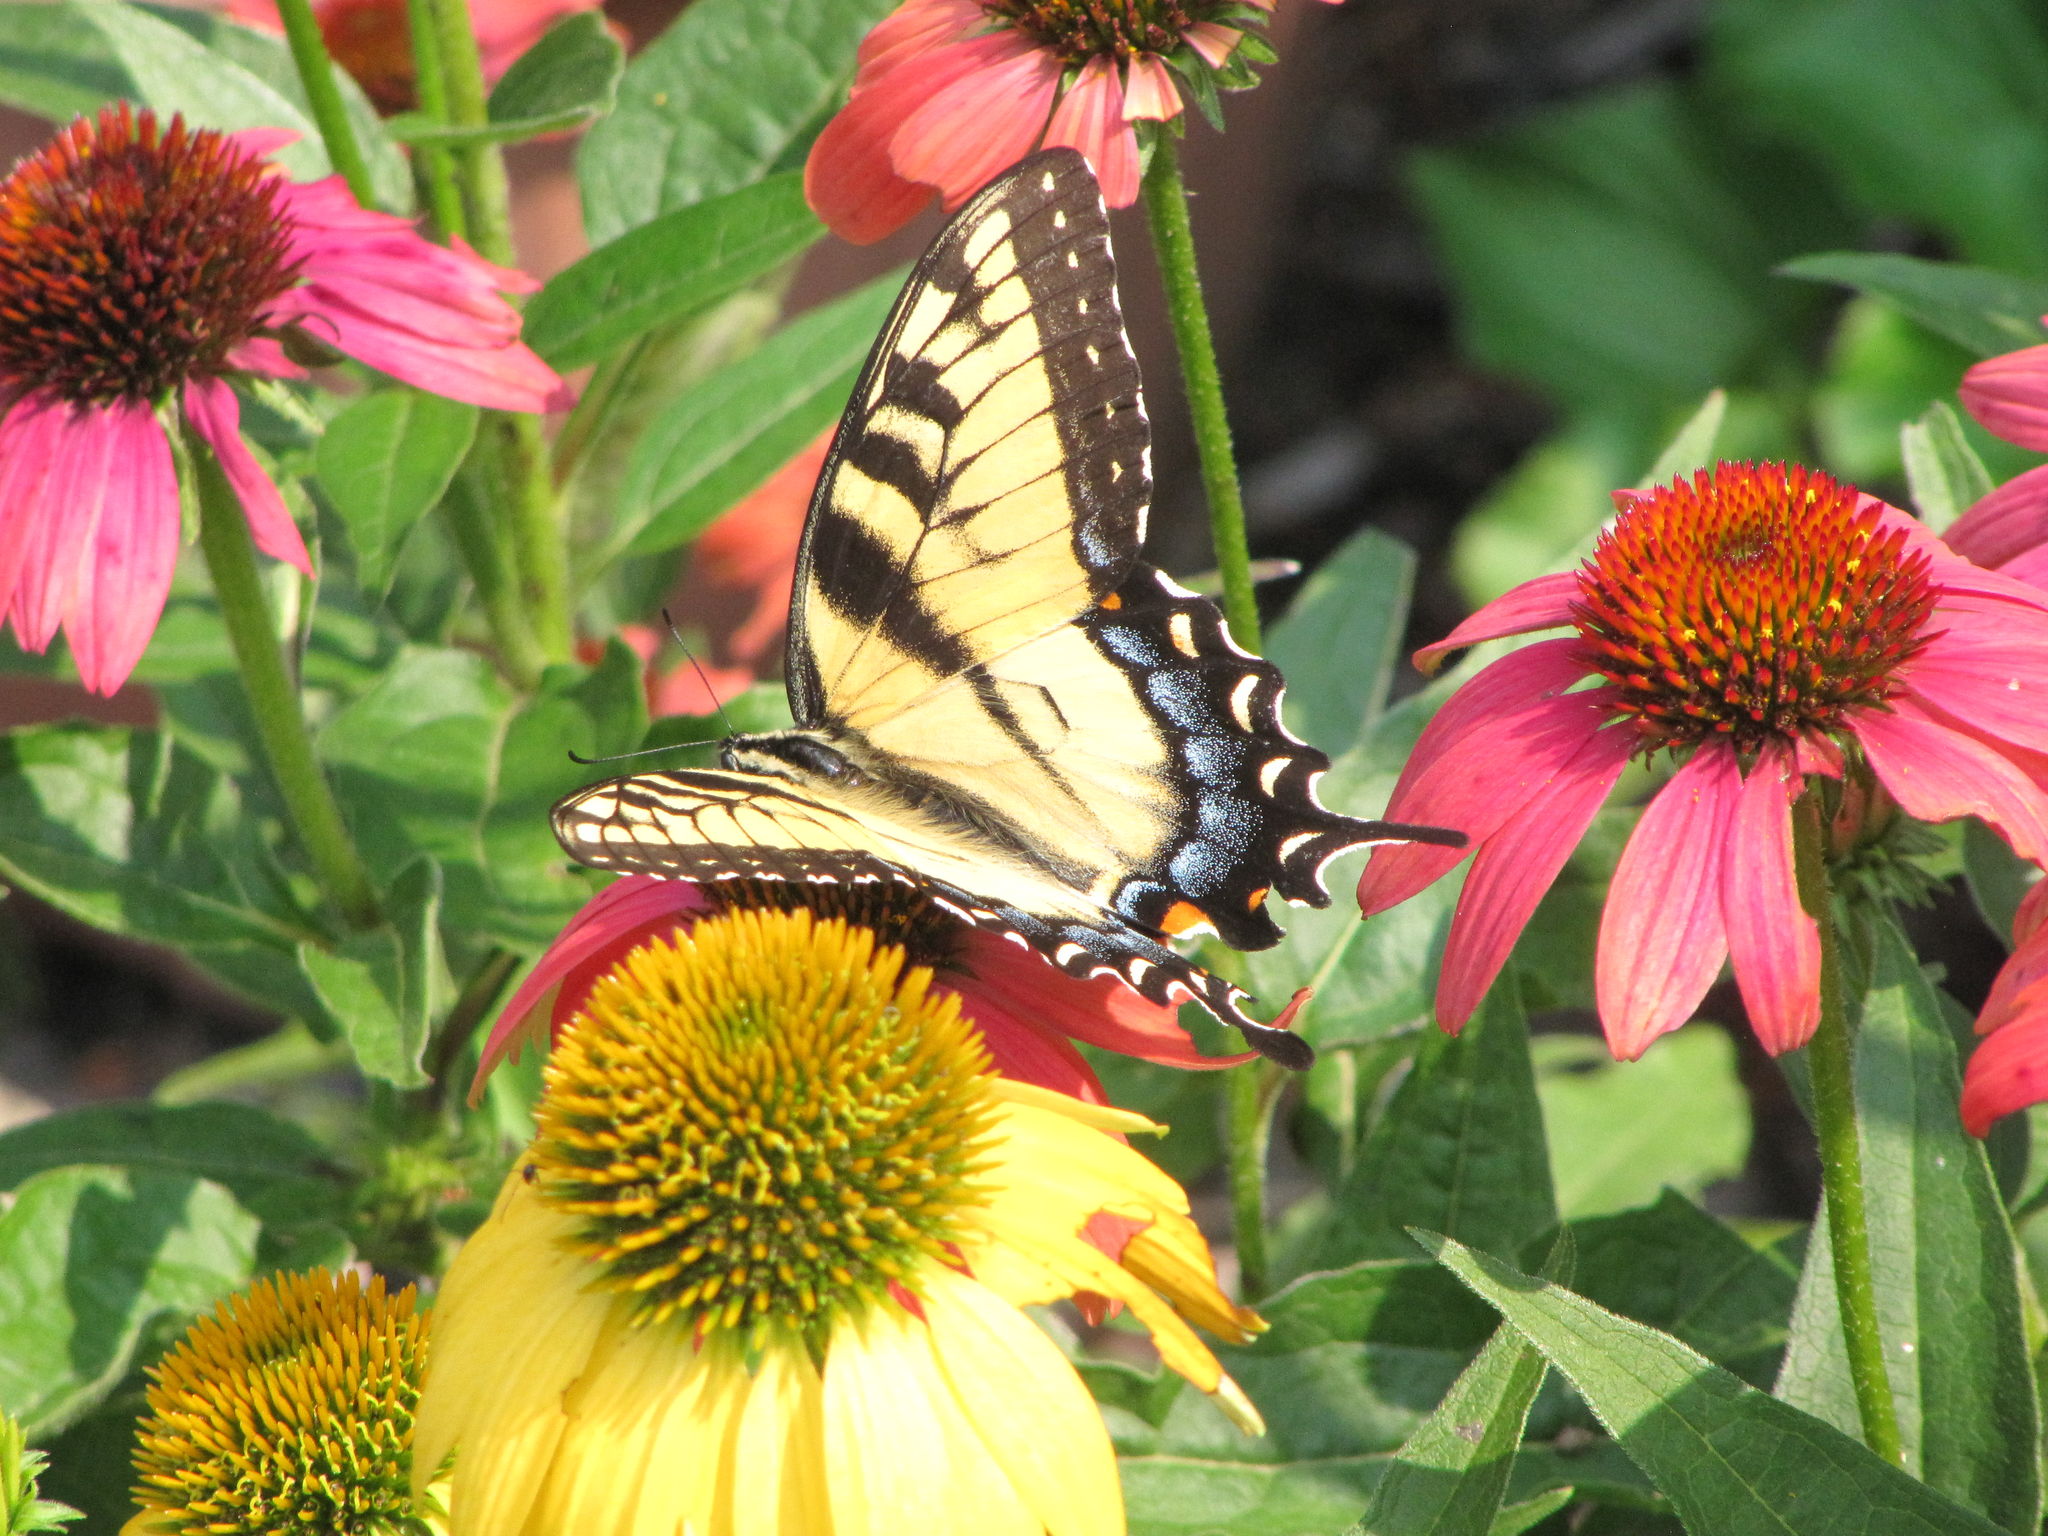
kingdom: Animalia
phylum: Arthropoda
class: Insecta
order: Lepidoptera
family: Papilionidae
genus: Papilio
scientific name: Papilio glaucus
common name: Tiger swallowtail
